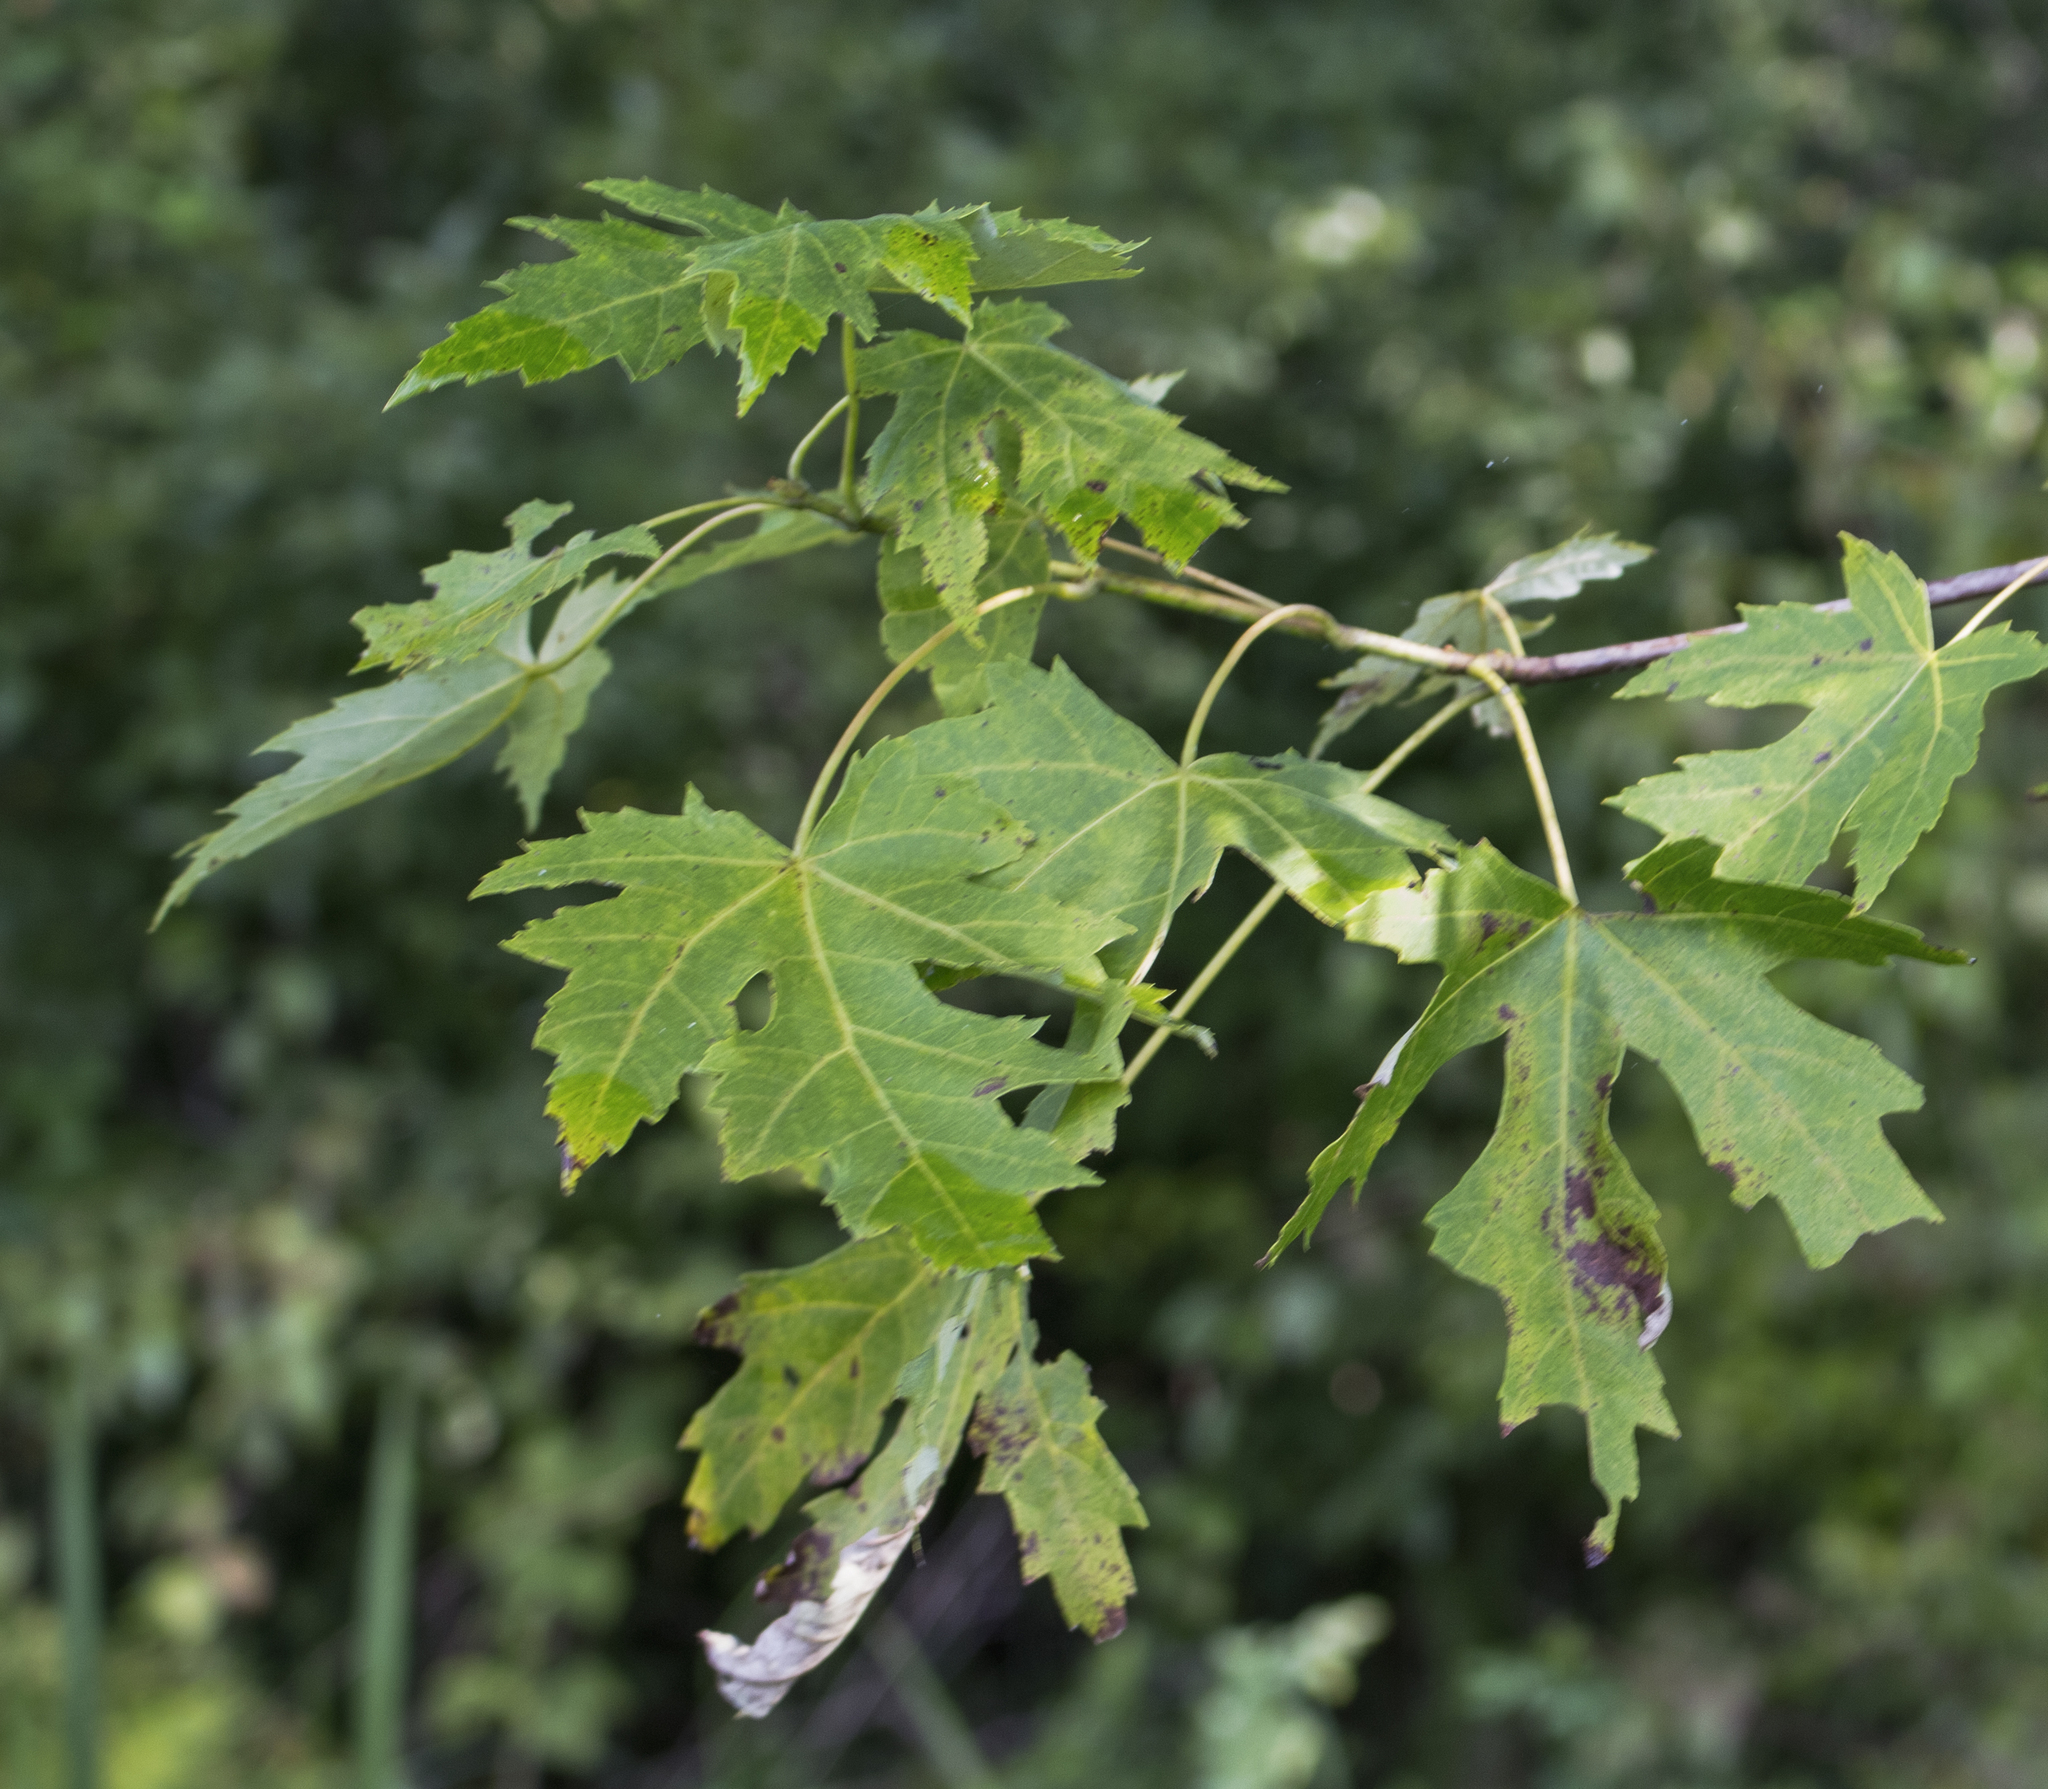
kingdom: Plantae
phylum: Tracheophyta
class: Magnoliopsida
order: Sapindales
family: Sapindaceae
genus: Acer
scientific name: Acer saccharinum
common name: Silver maple
